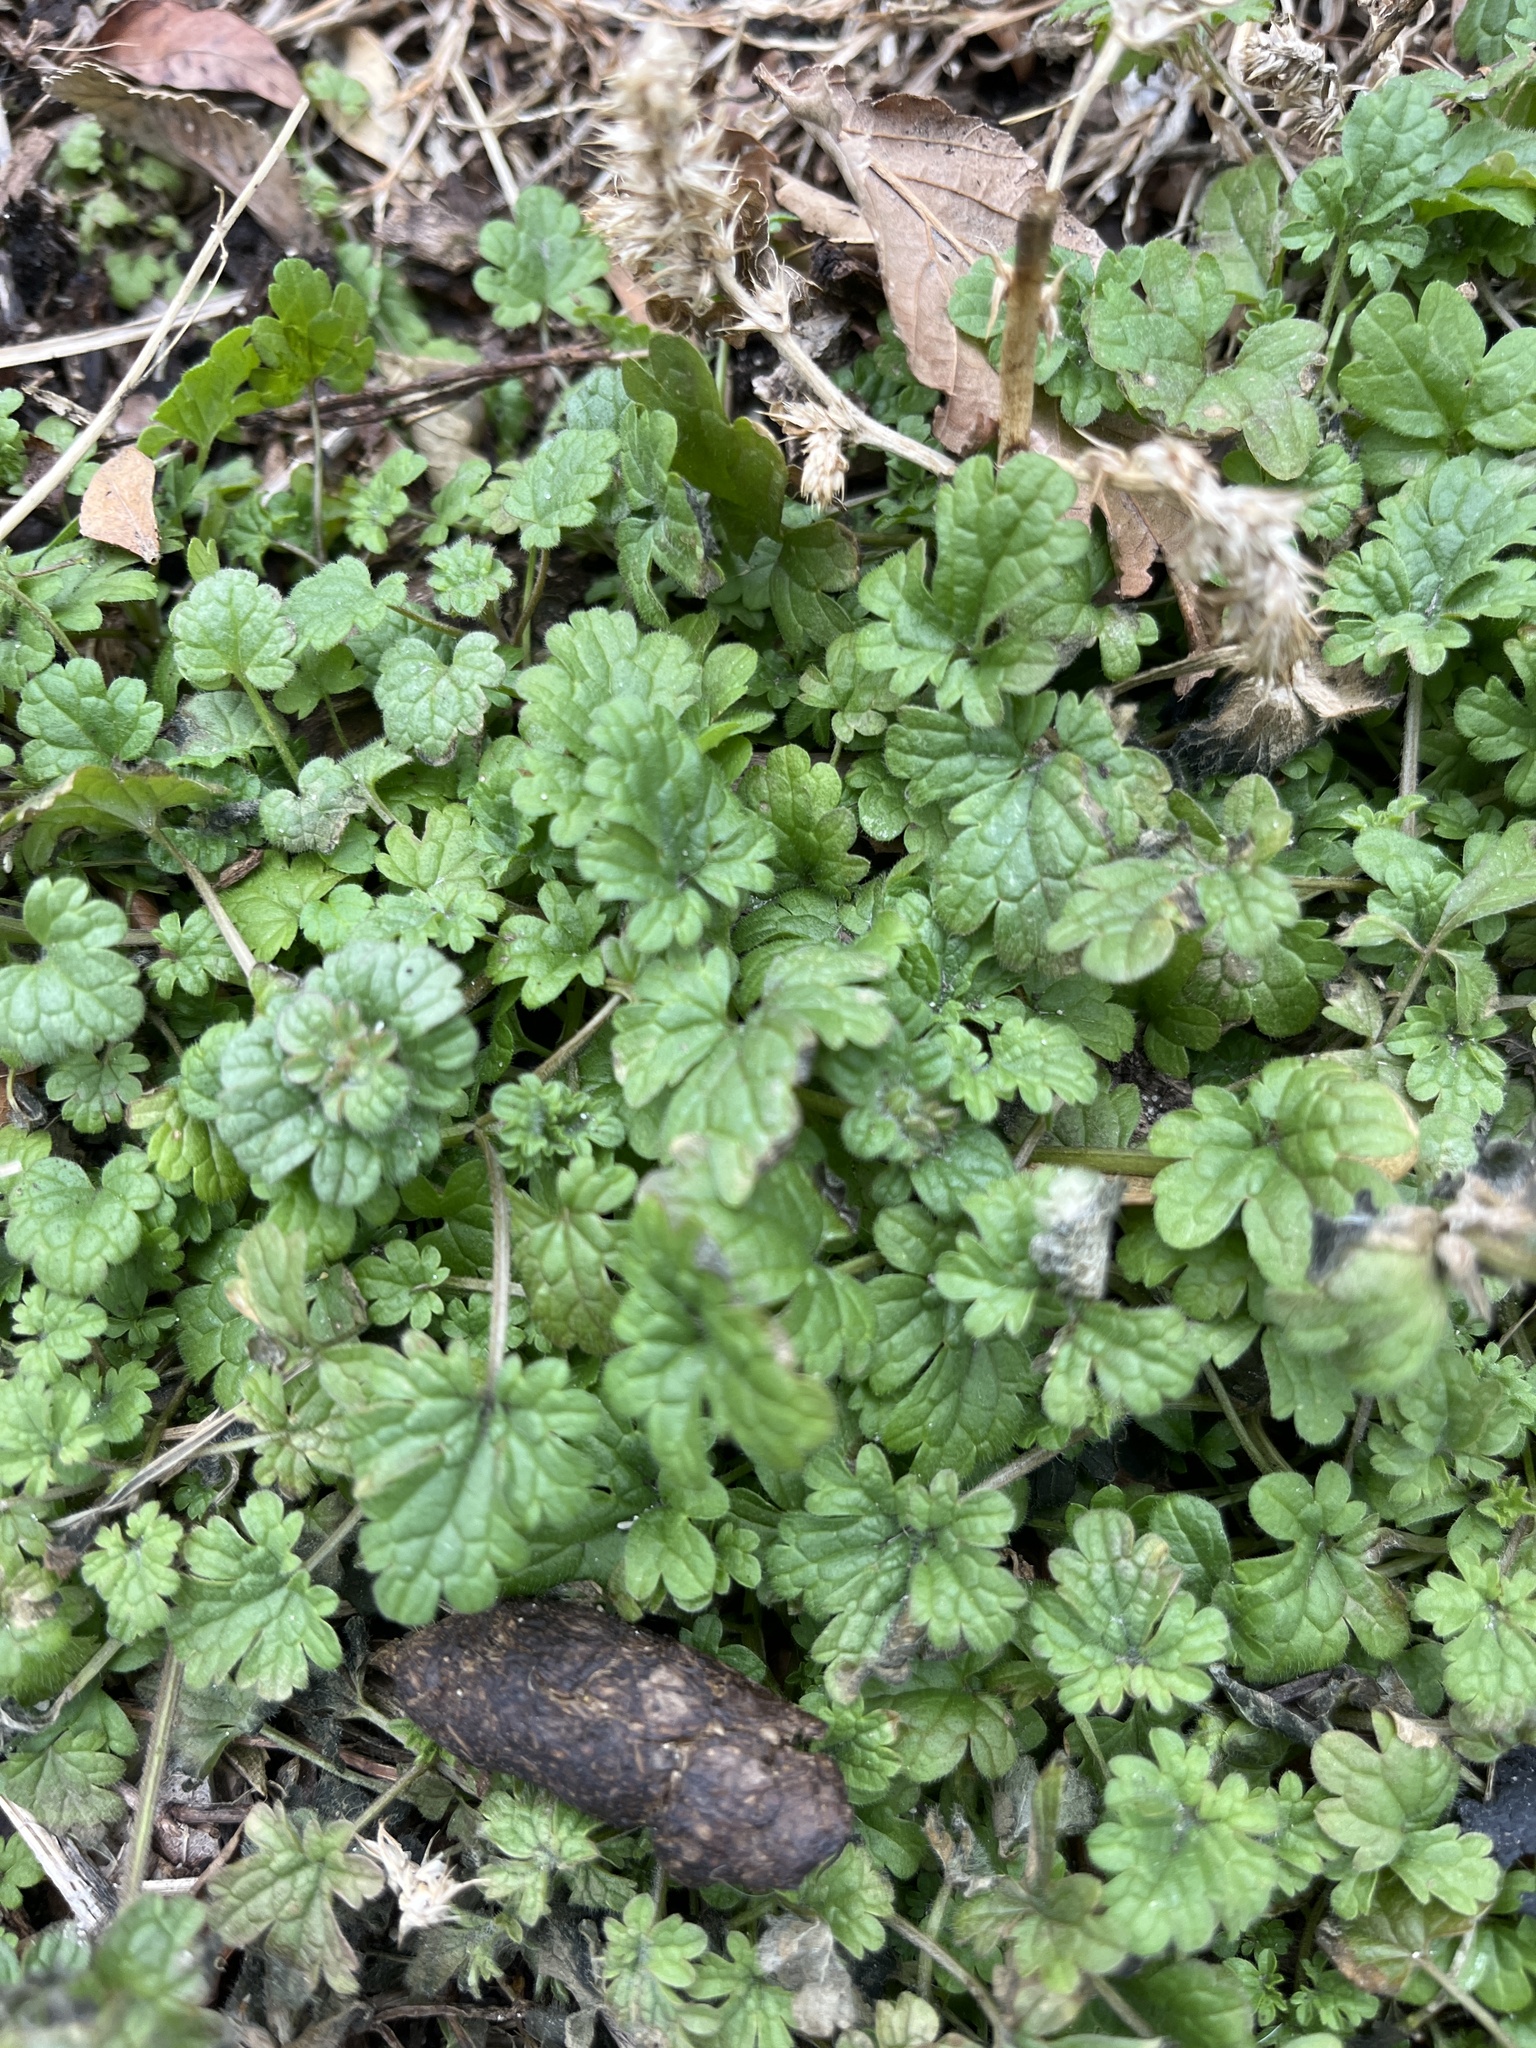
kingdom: Plantae
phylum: Tracheophyta
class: Magnoliopsida
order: Lamiales
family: Lamiaceae
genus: Lamium
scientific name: Lamium amplexicaule
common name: Henbit dead-nettle
